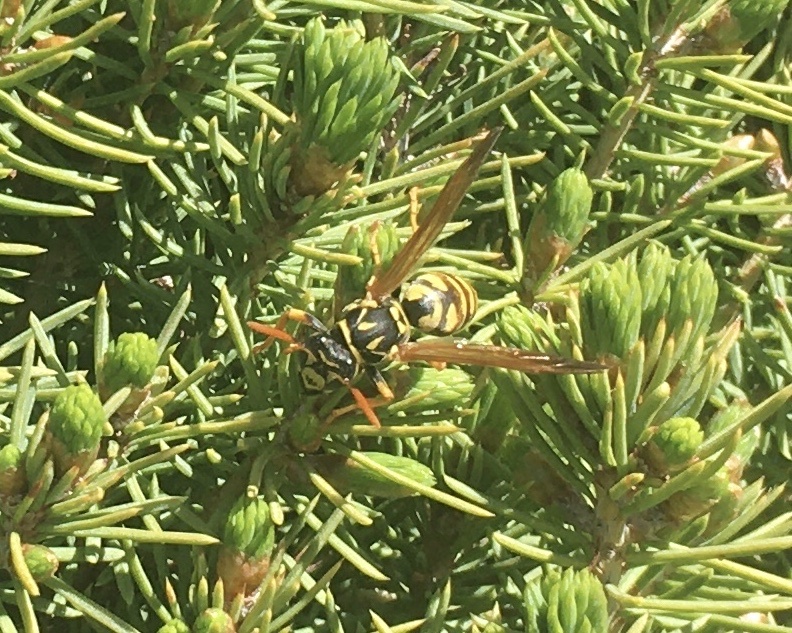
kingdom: Animalia
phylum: Arthropoda
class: Insecta
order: Hymenoptera
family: Eumenidae
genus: Polistes
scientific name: Polistes dominula
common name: Paper wasp
